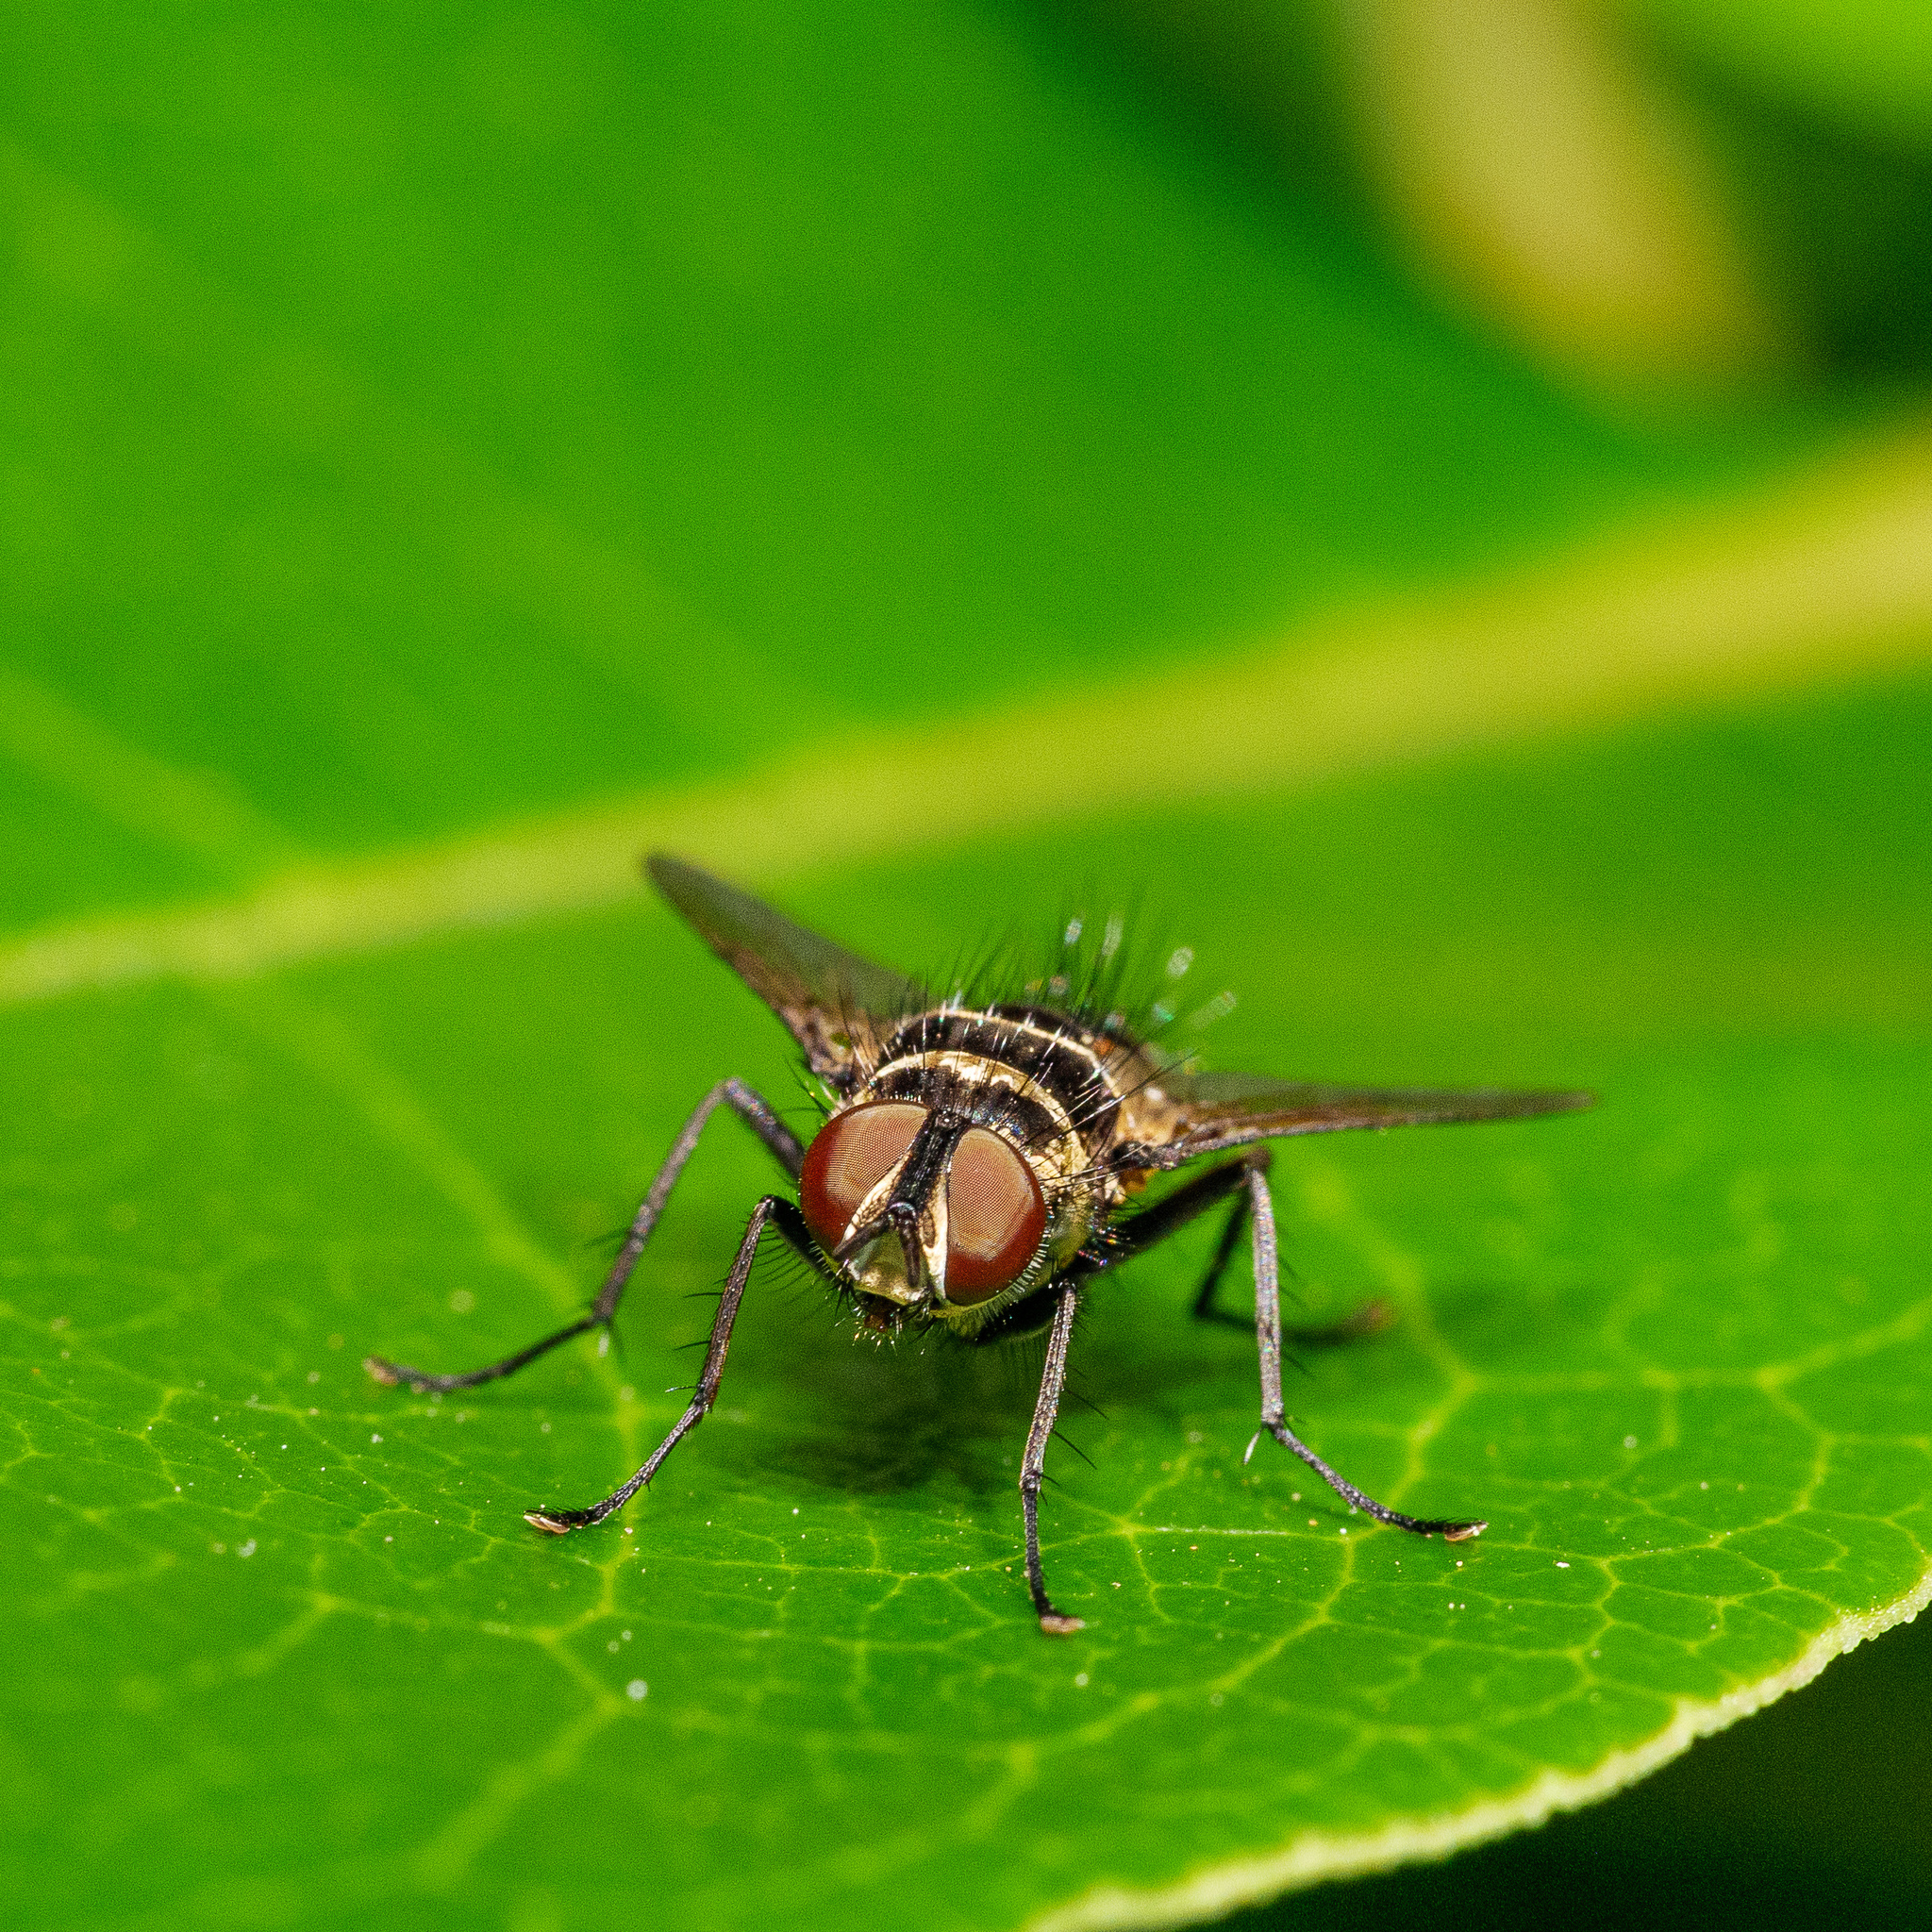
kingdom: Animalia
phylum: Arthropoda
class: Insecta
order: Diptera
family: Tachinidae
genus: Trigonospila
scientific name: Trigonospila brevifacies
